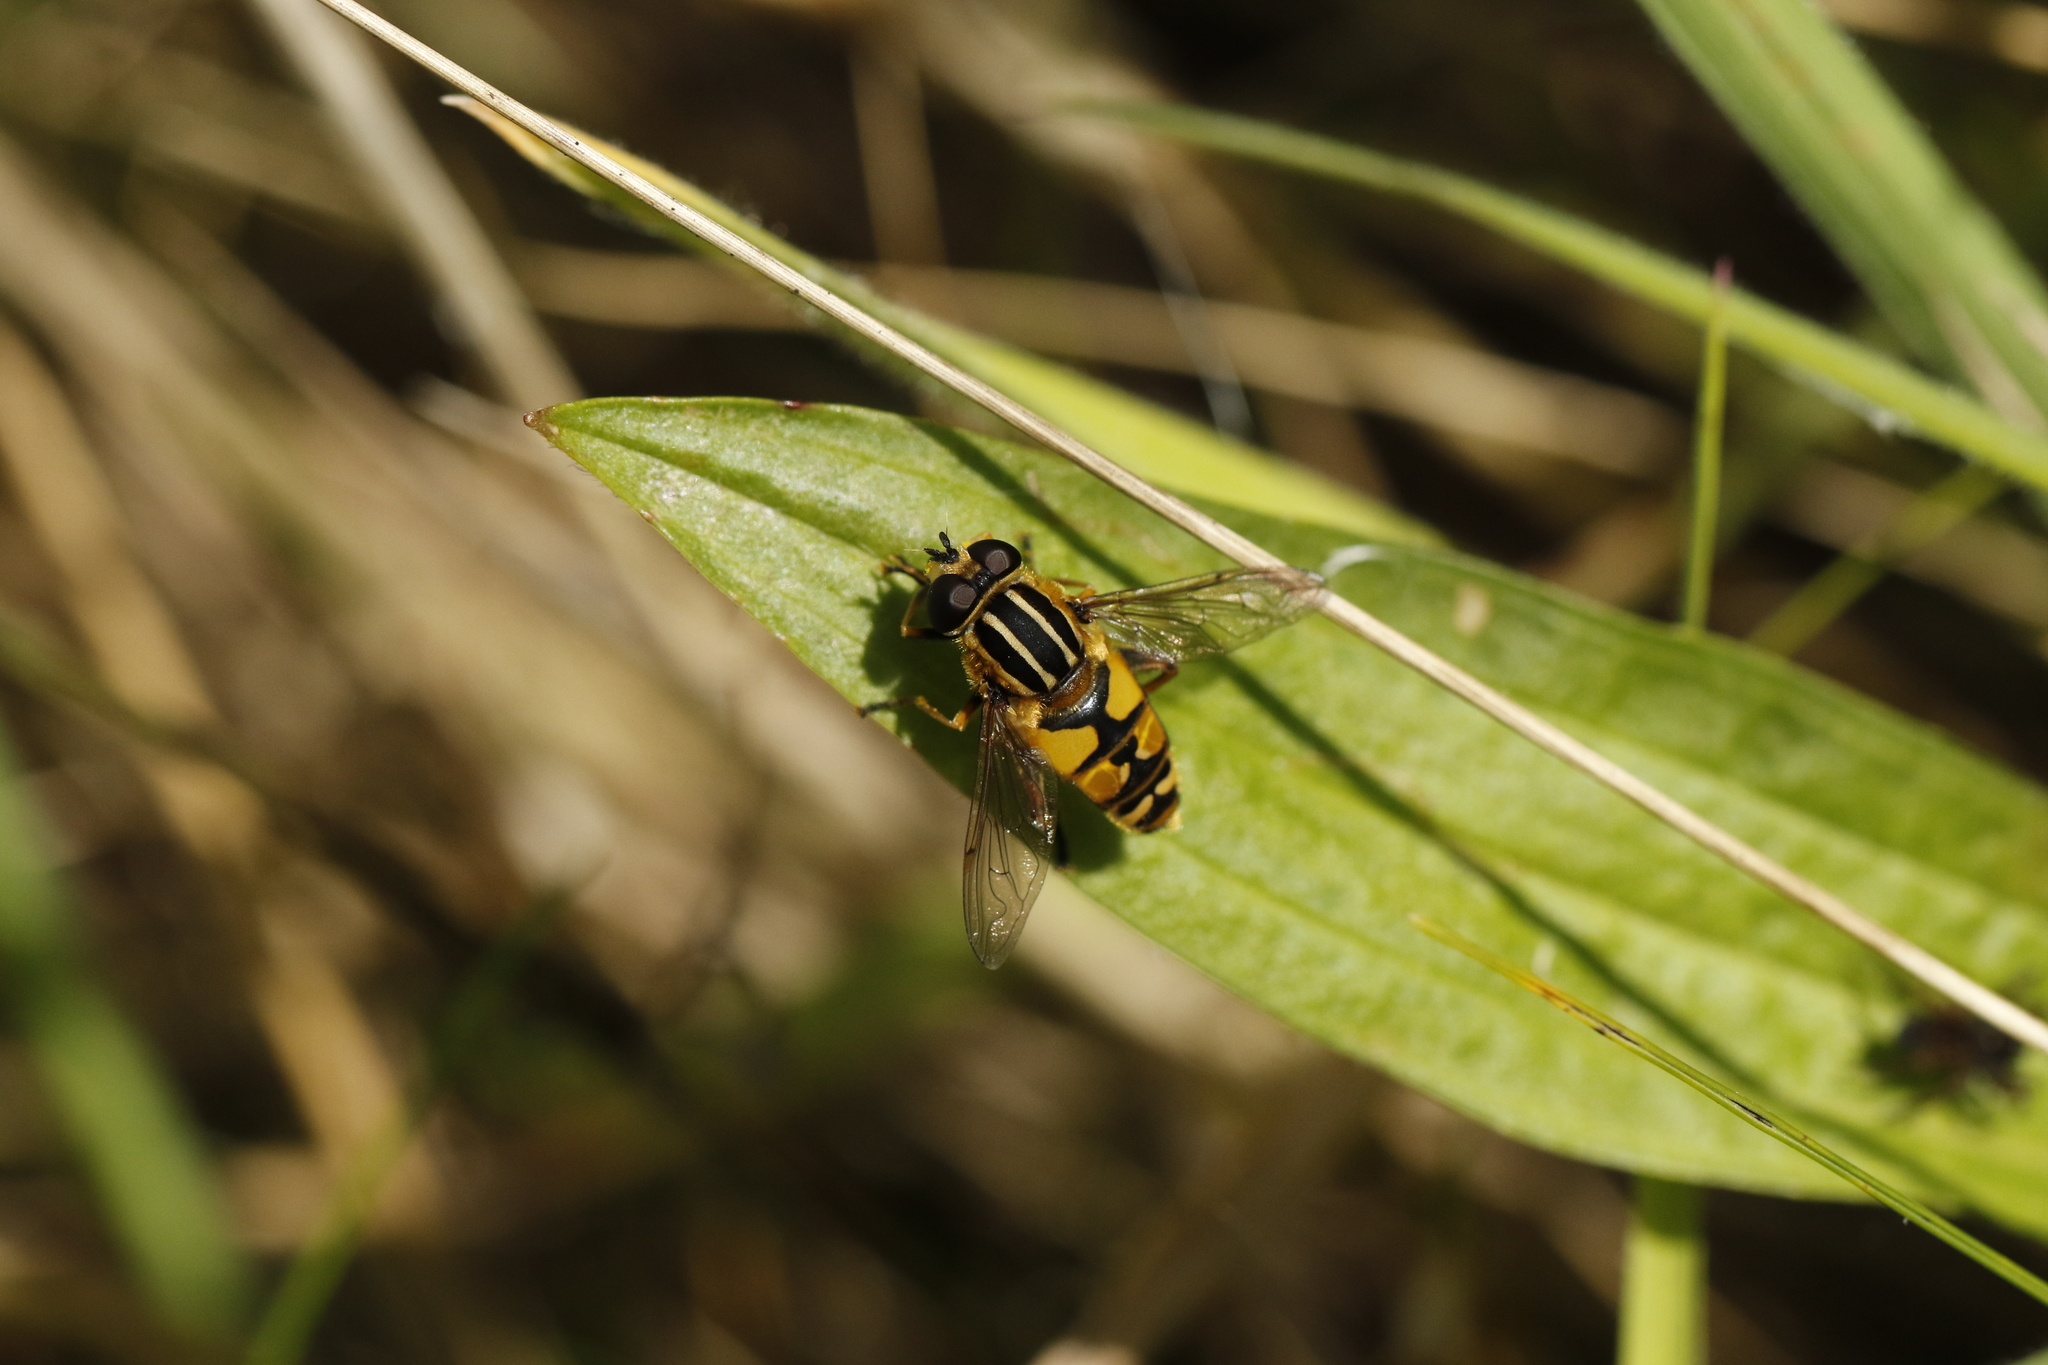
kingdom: Animalia
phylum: Arthropoda
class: Insecta
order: Diptera
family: Syrphidae
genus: Helophilus
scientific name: Helophilus pendulus
